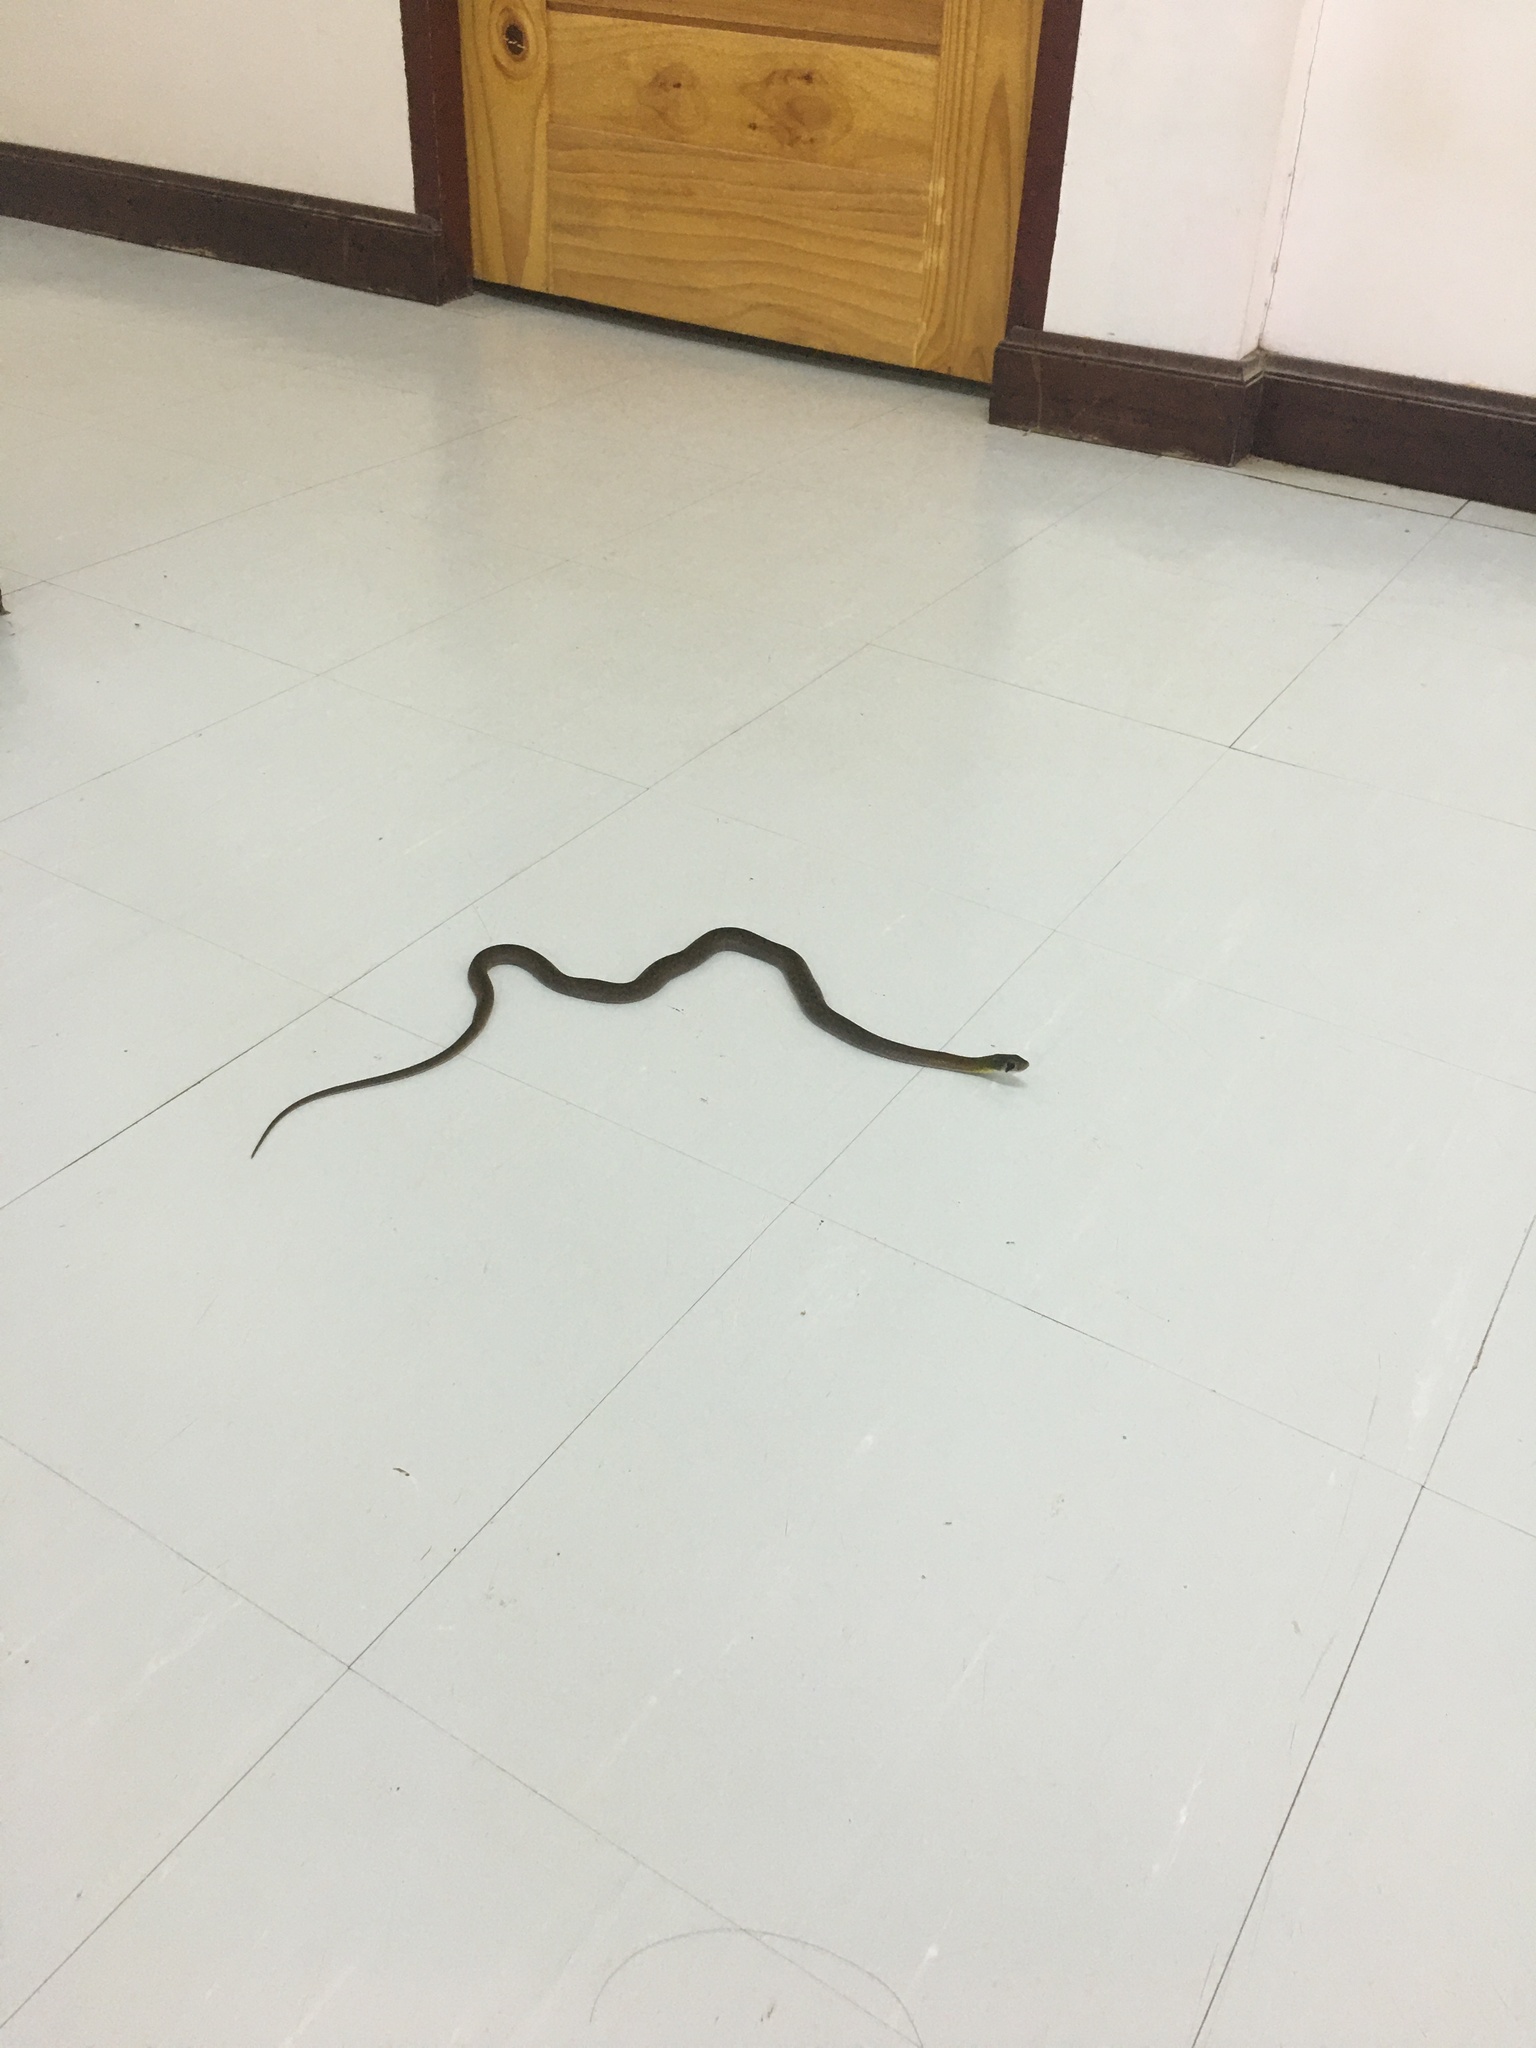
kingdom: Animalia
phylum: Chordata
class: Squamata
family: Colubridae
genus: Rhabdophis
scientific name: Rhabdophis
